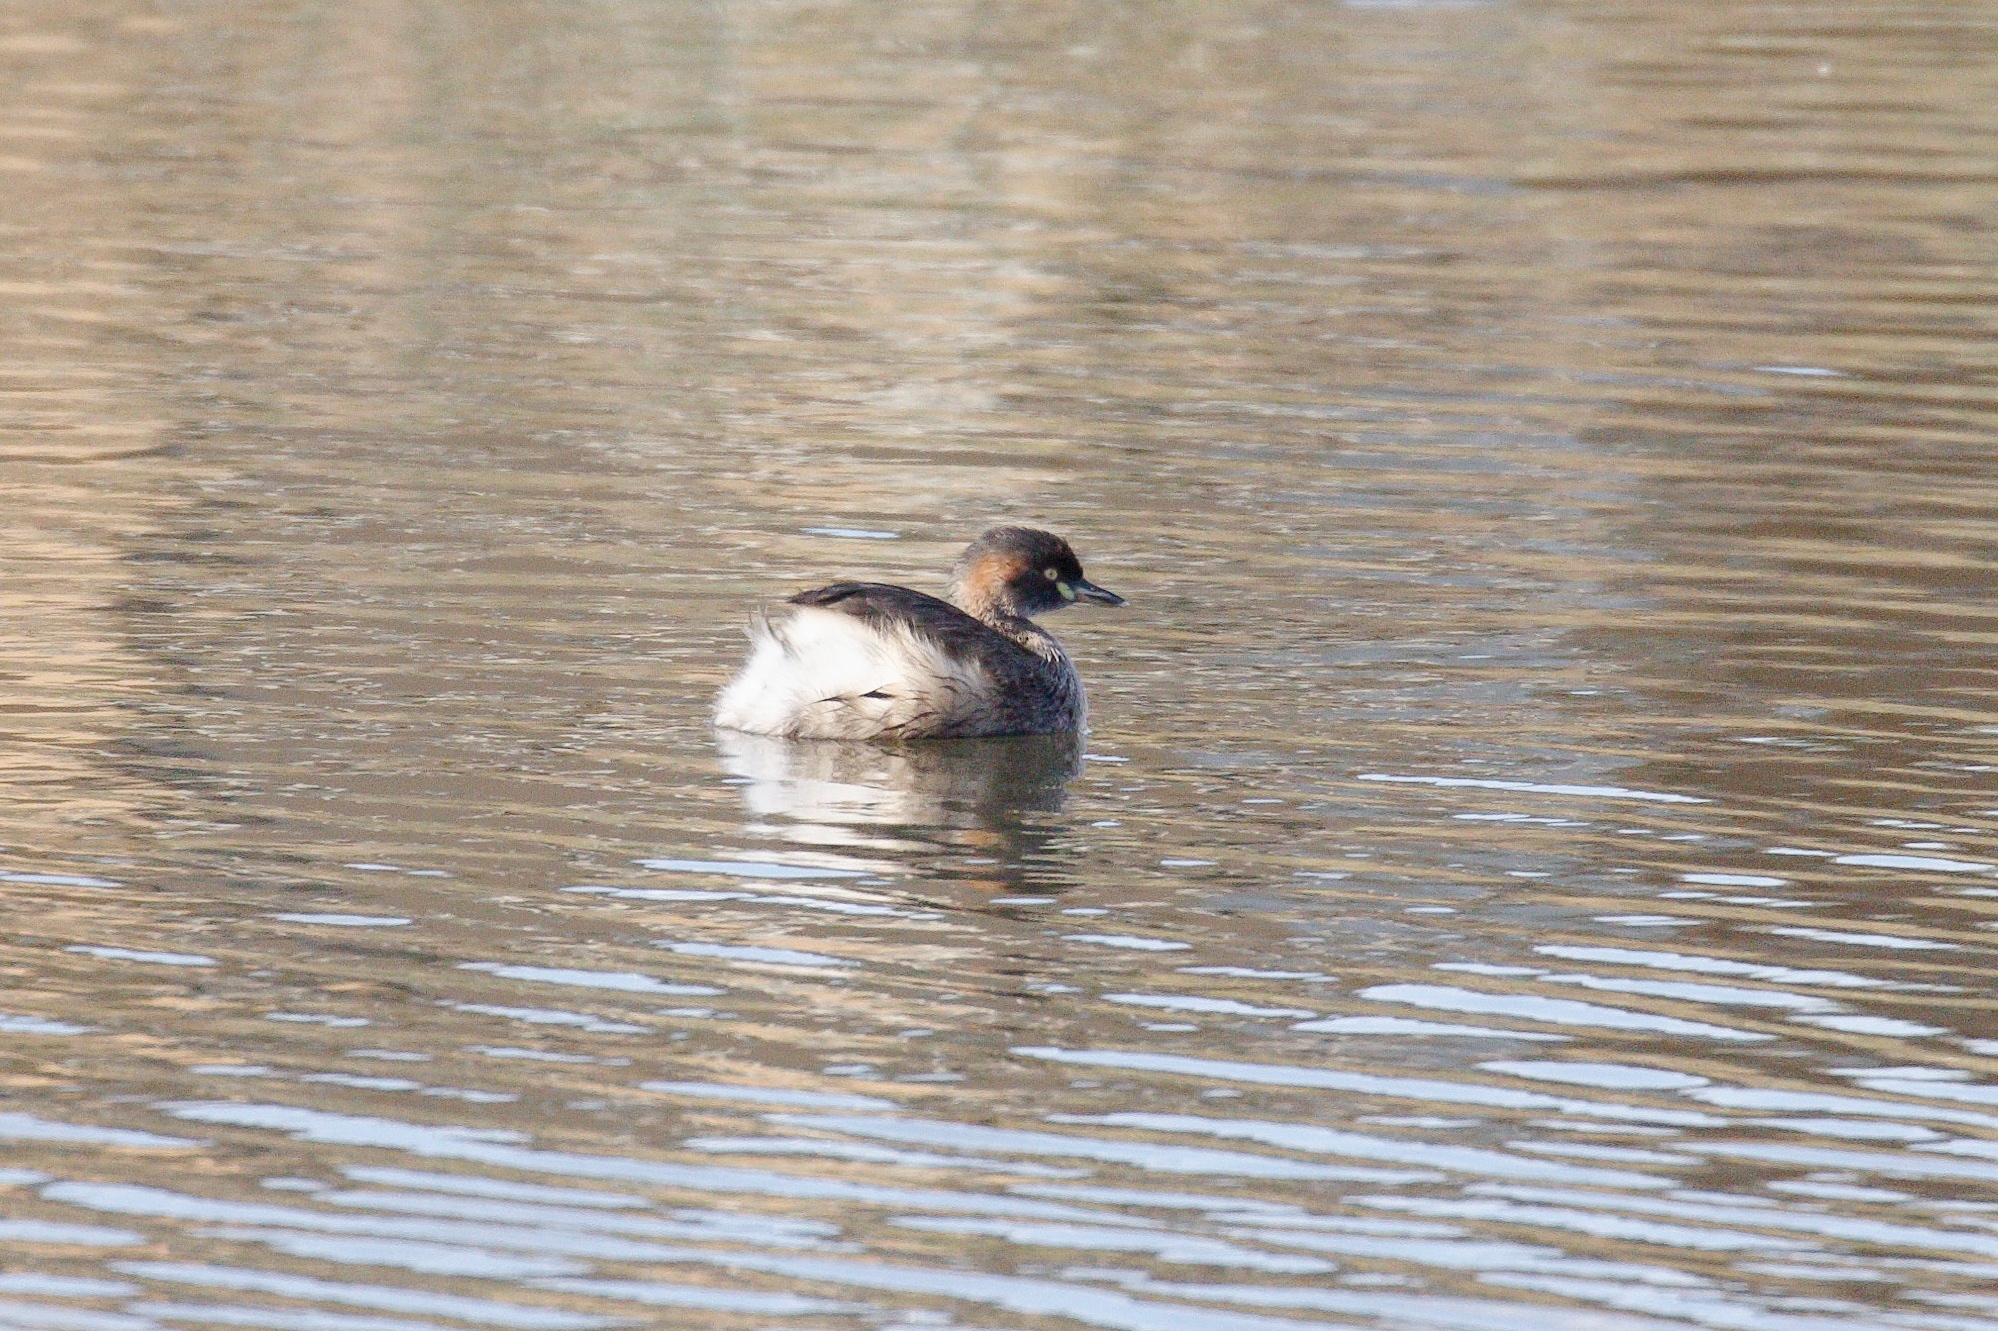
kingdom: Animalia
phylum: Chordata
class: Aves
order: Podicipediformes
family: Podicipedidae
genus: Tachybaptus
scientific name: Tachybaptus novaehollandiae
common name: Australasian grebe
